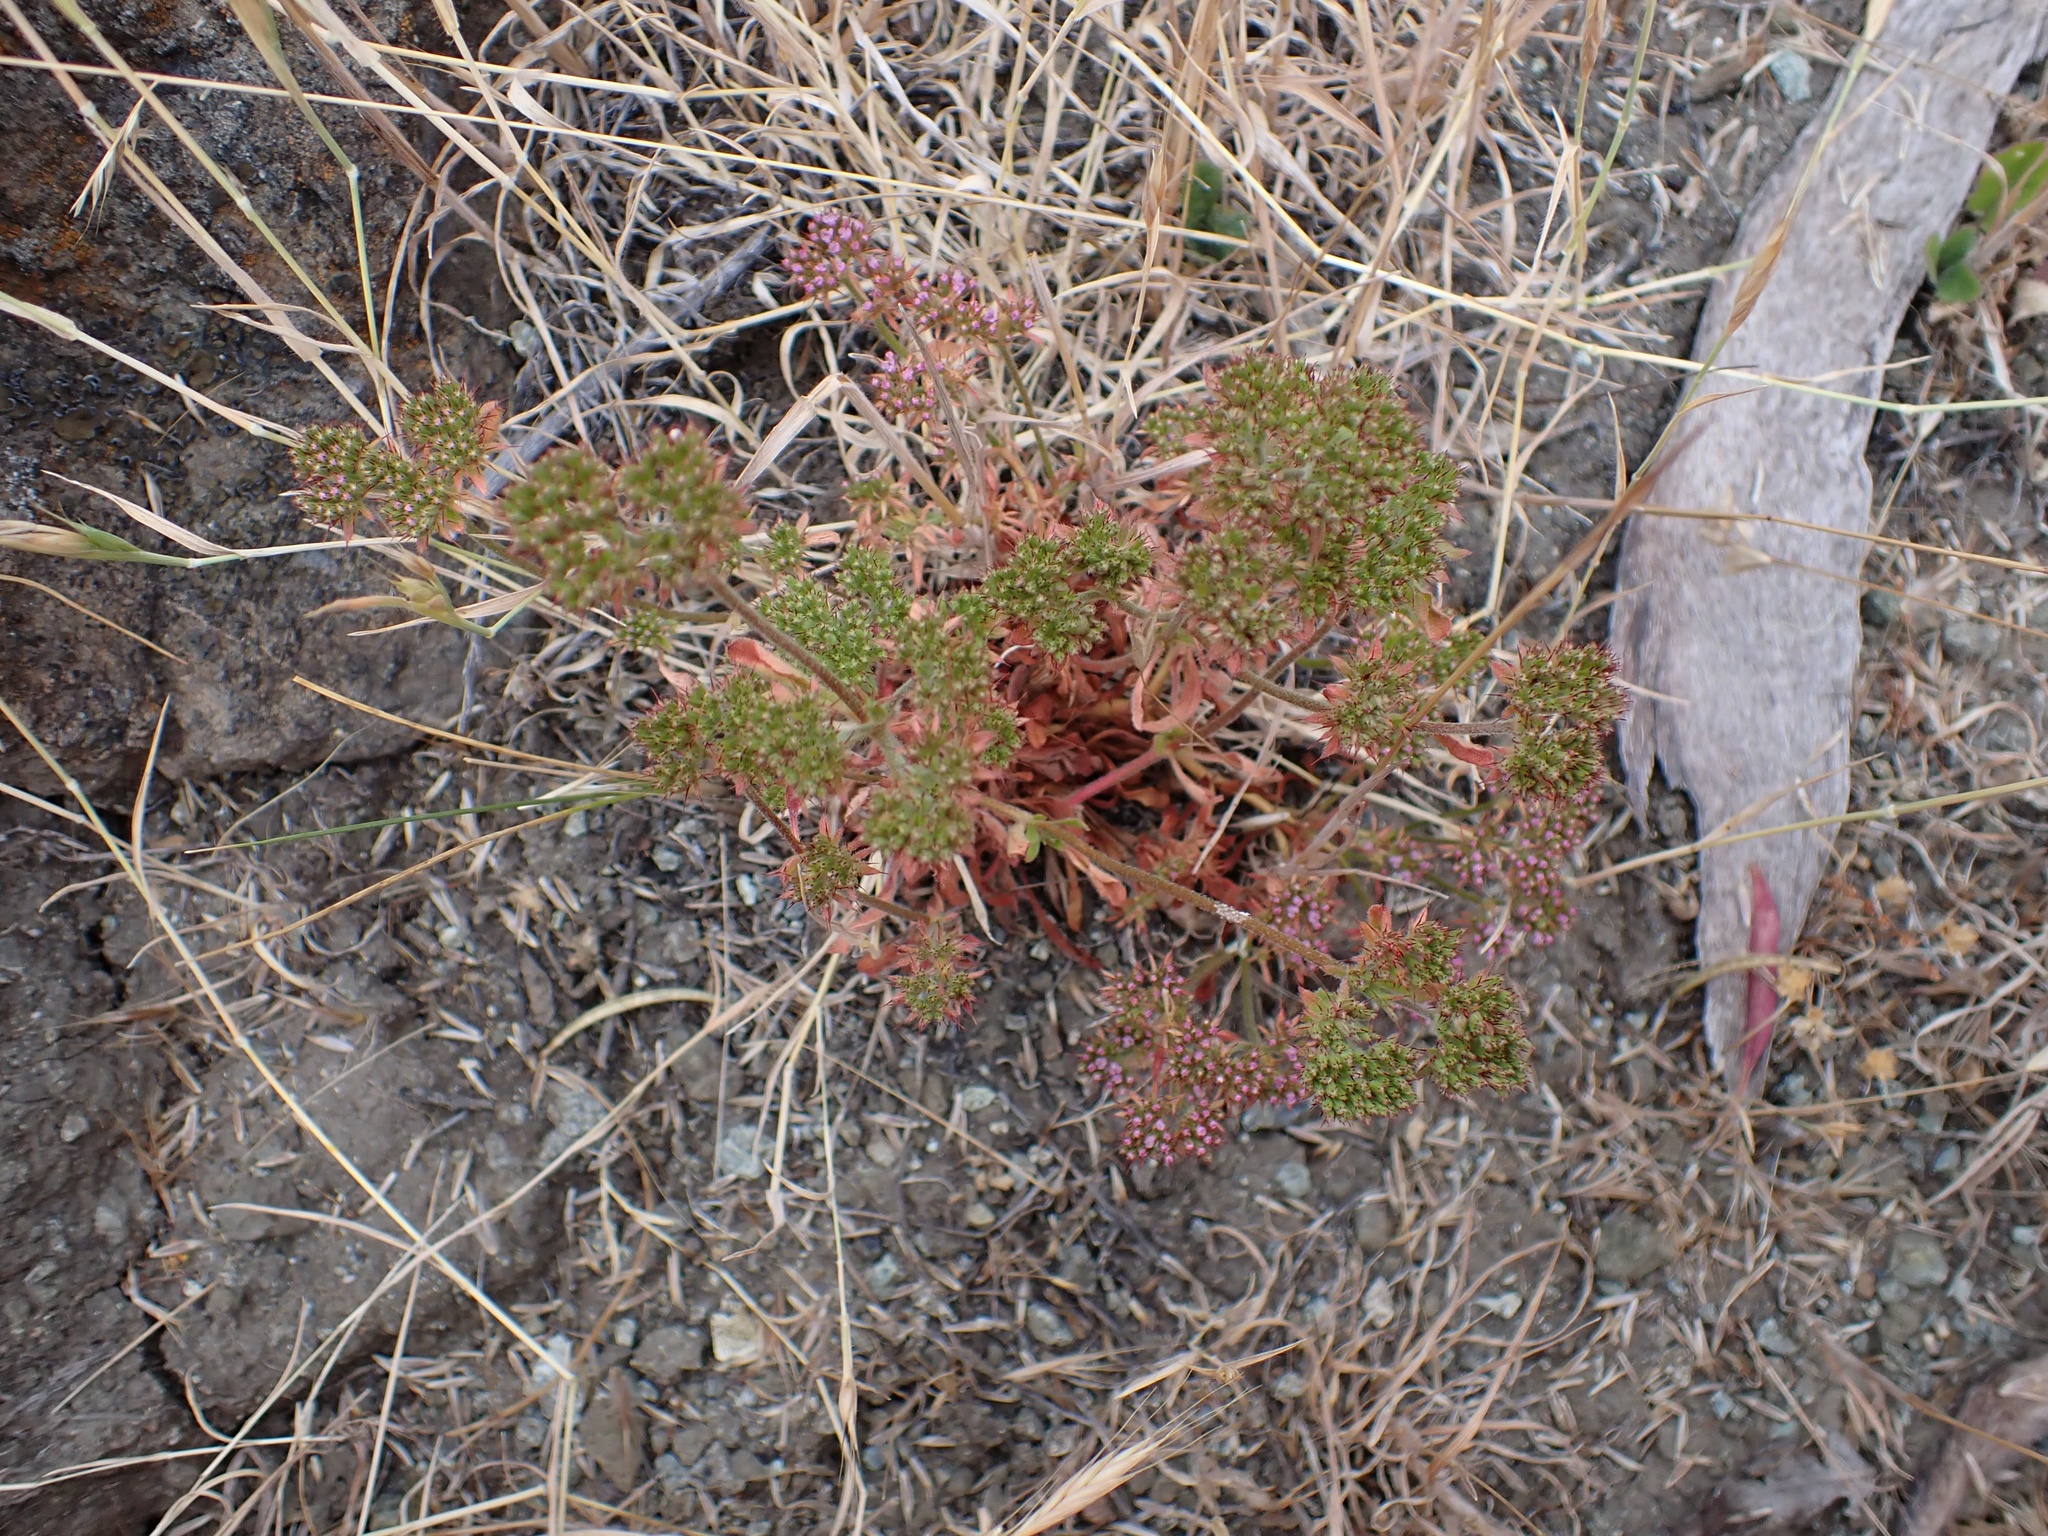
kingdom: Plantae
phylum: Tracheophyta
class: Magnoliopsida
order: Caryophyllales
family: Polygonaceae
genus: Chorizanthe
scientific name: Chorizanthe palmeri
